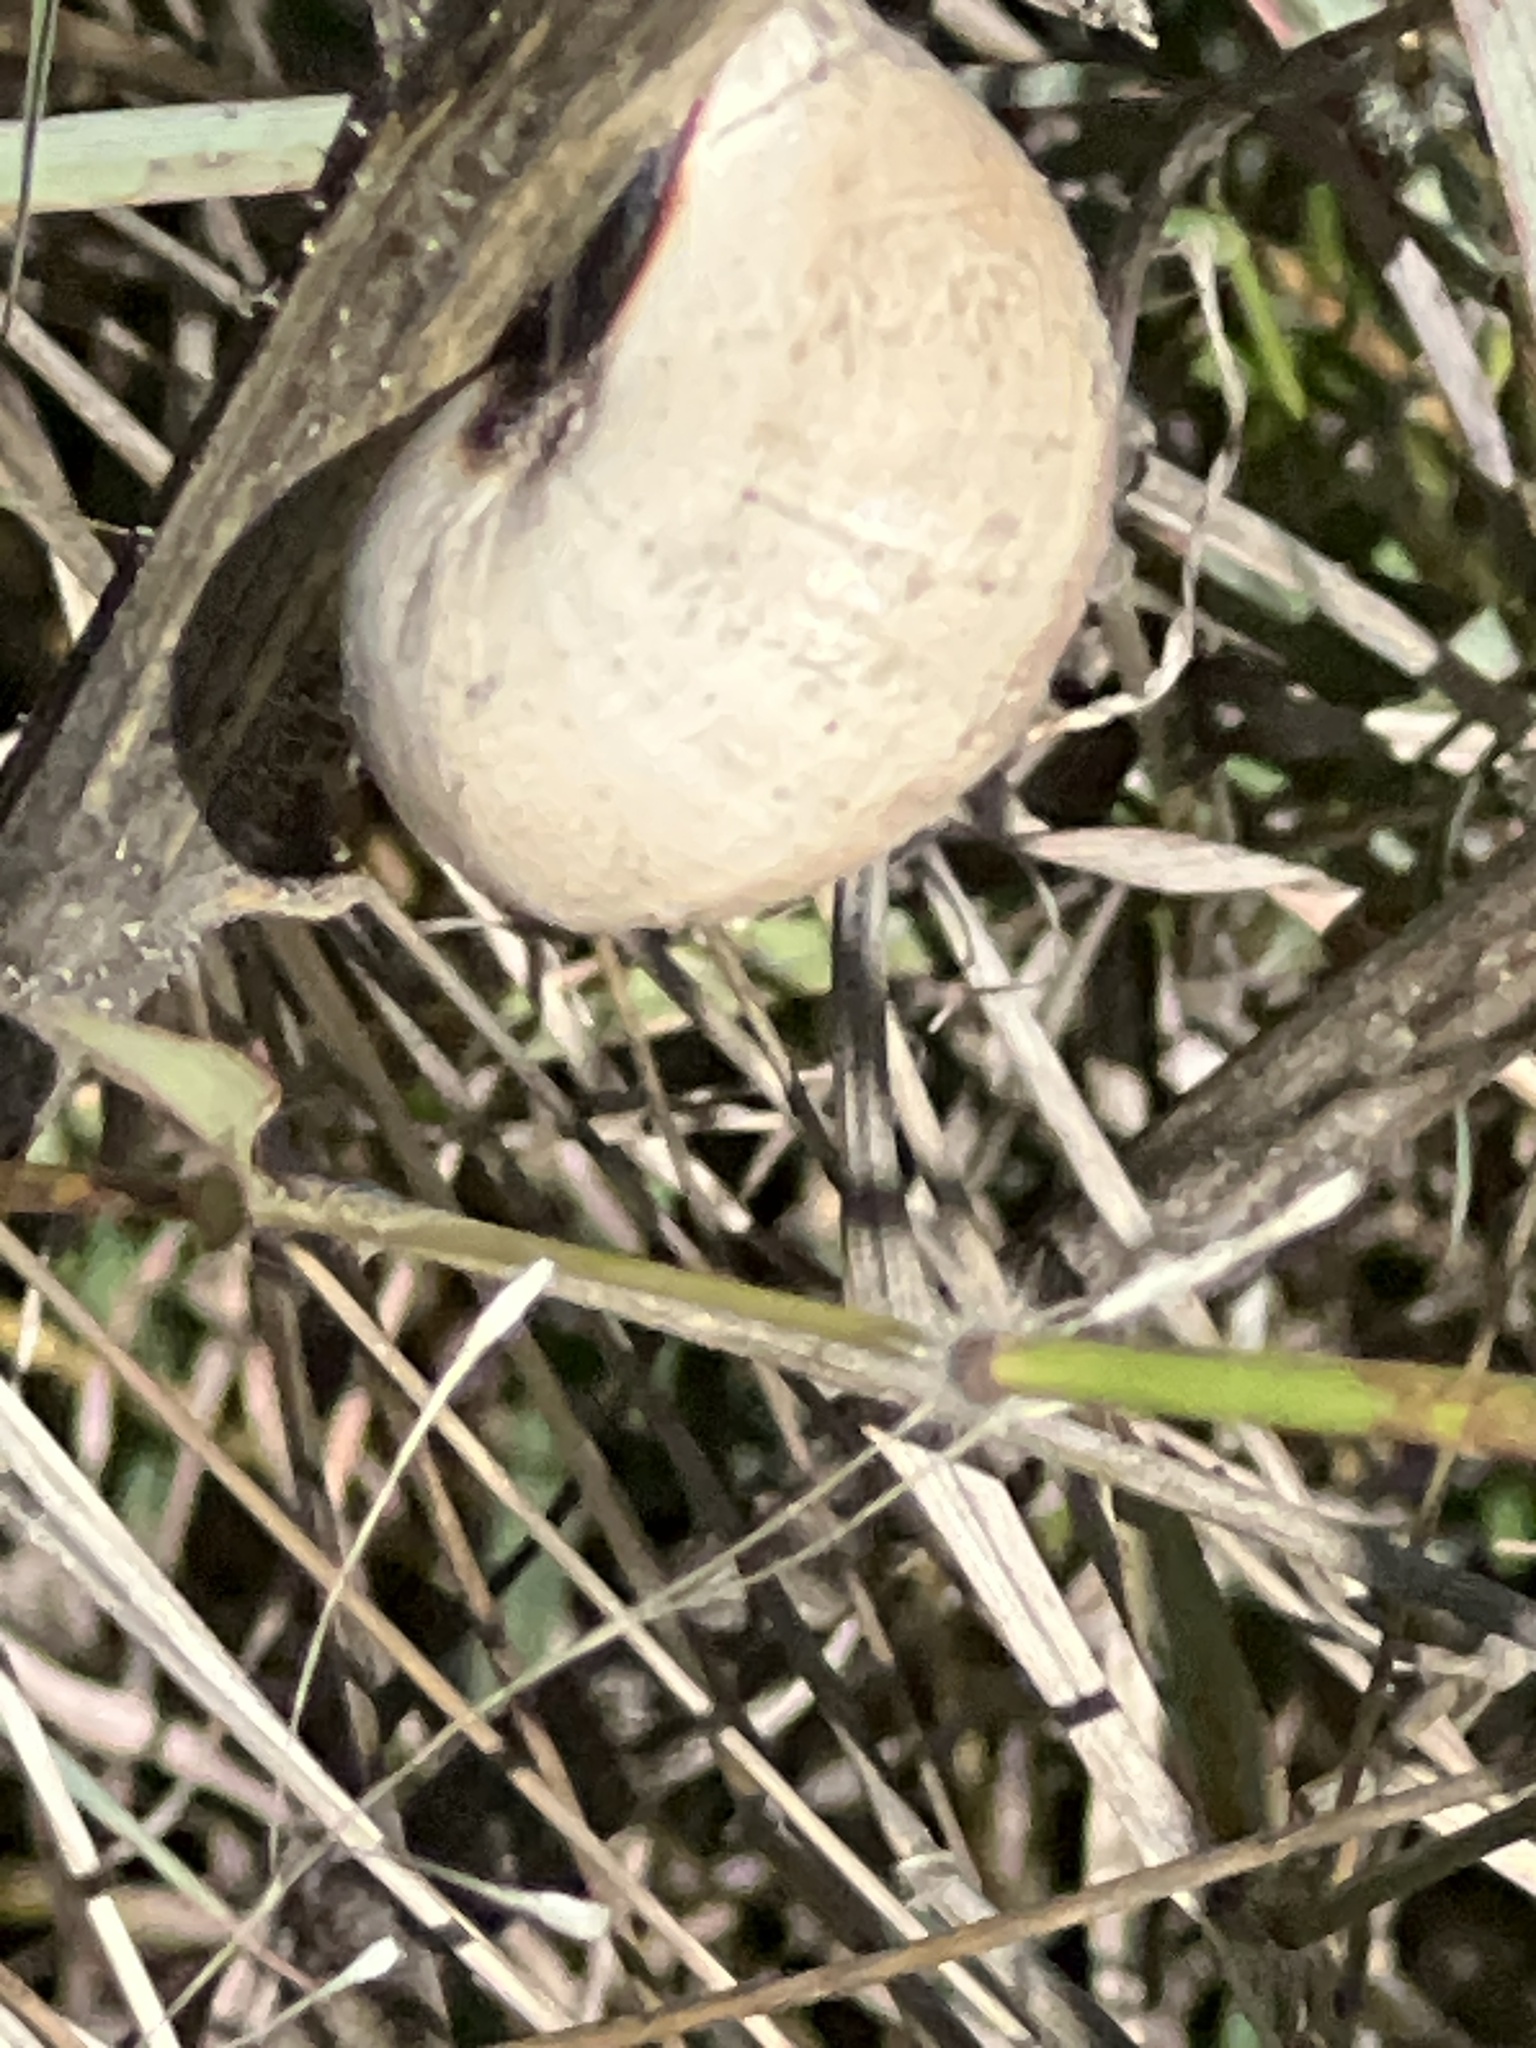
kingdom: Animalia
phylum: Mollusca
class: Gastropoda
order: Stylommatophora
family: Helicidae
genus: Otala
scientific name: Otala lactea
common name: Milk snail
